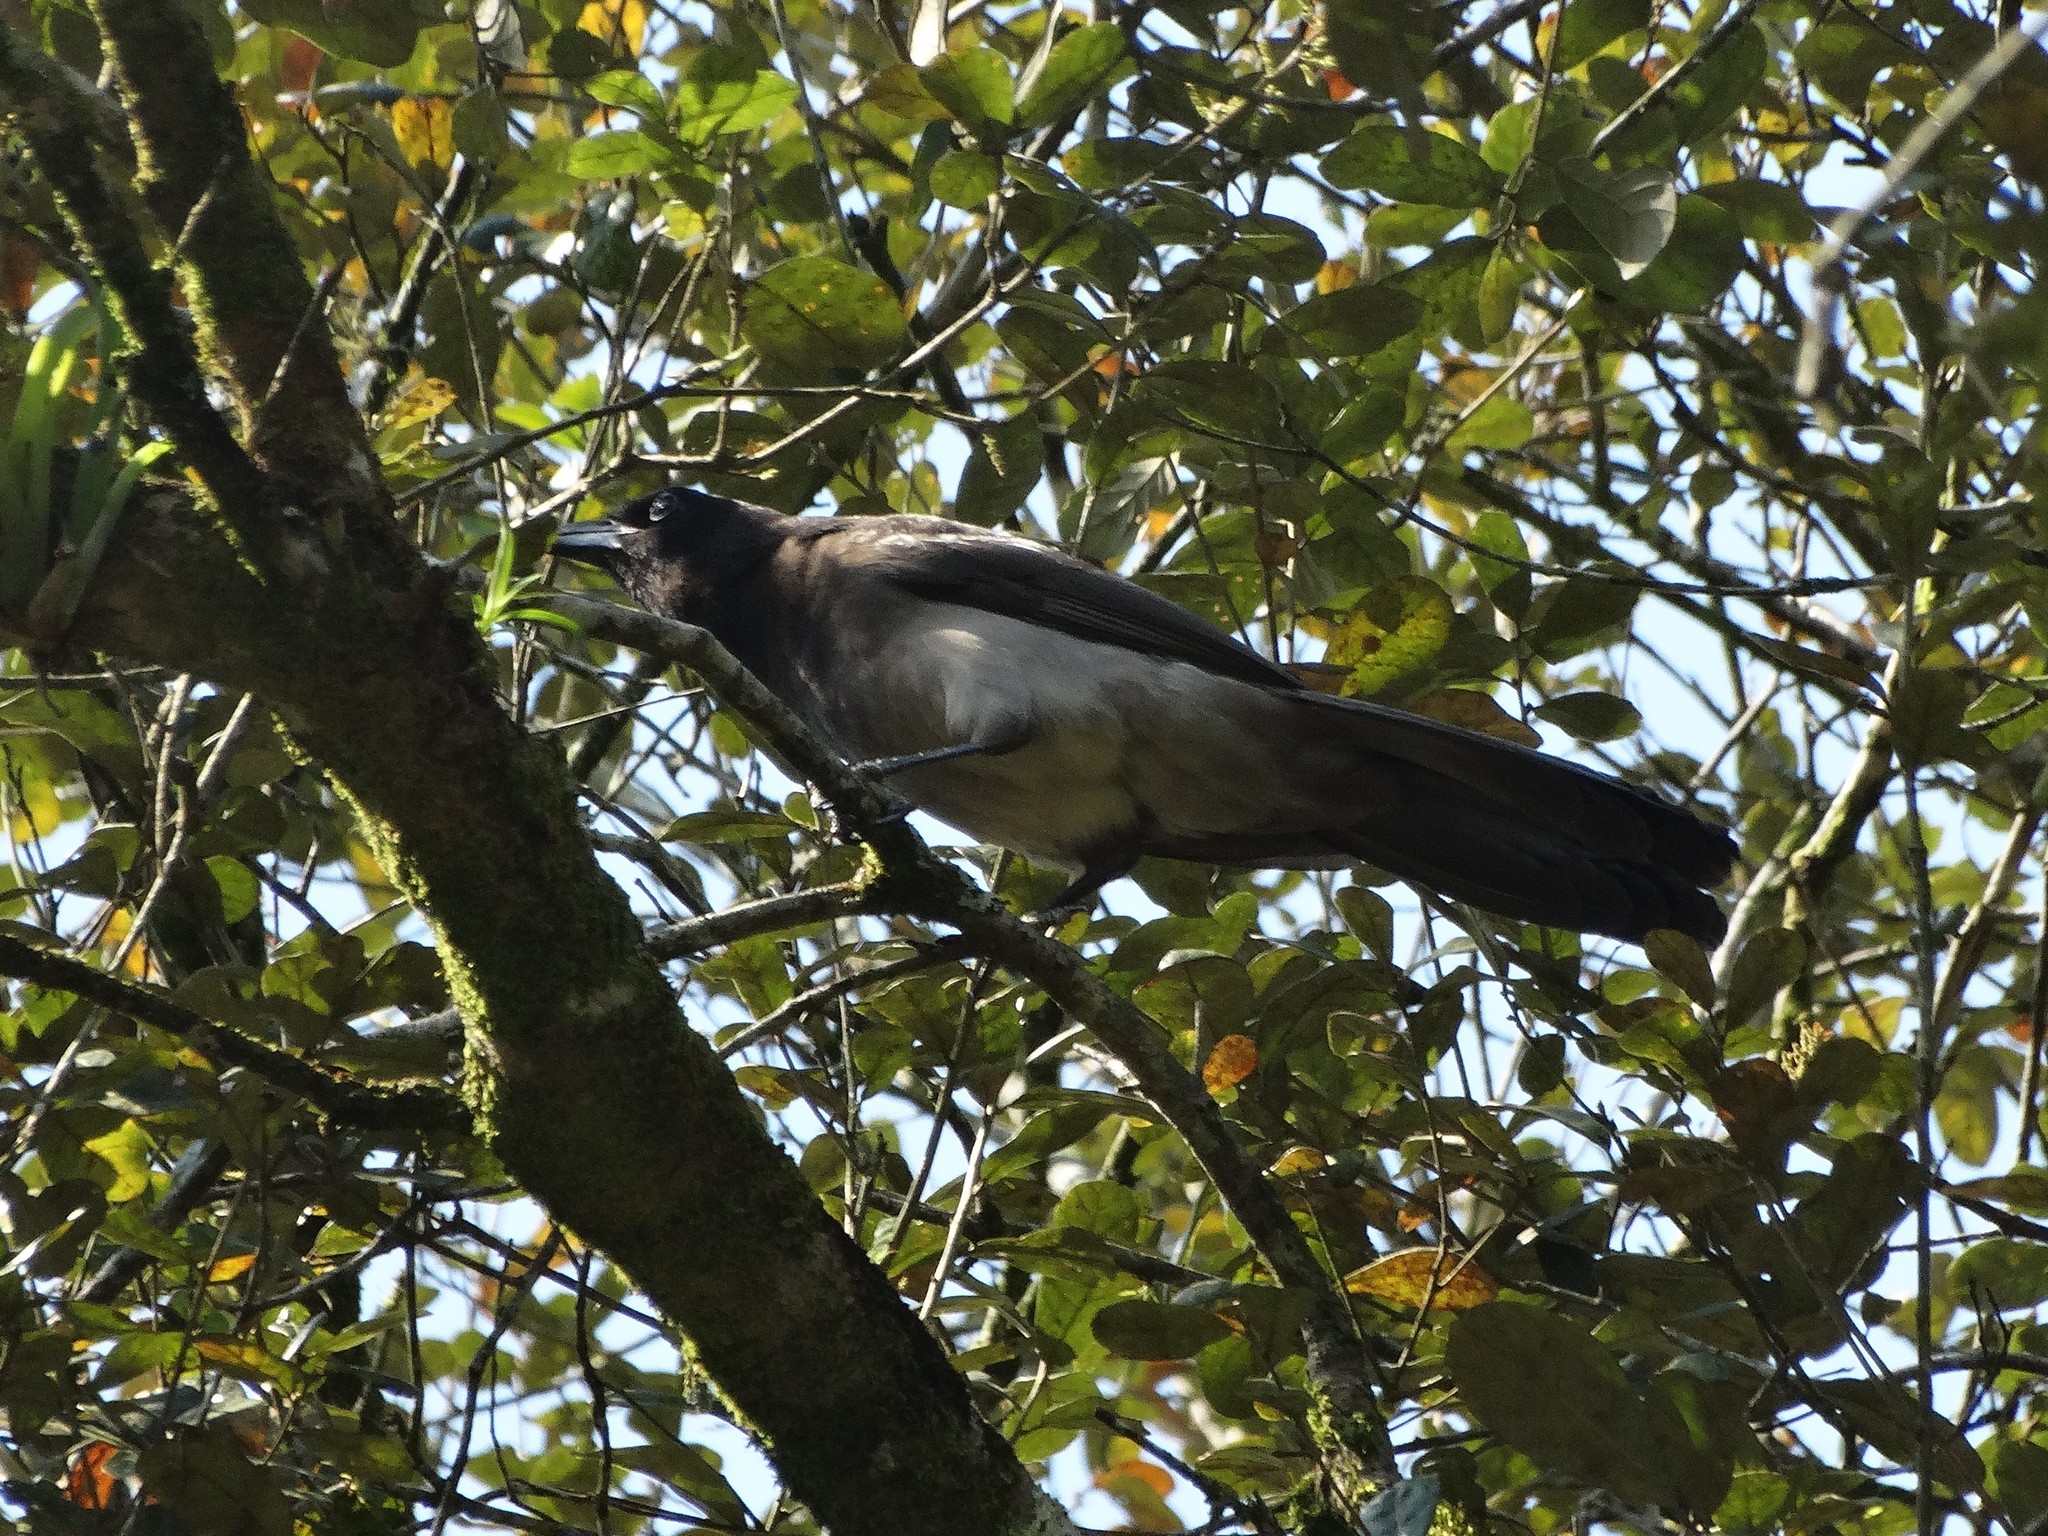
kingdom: Animalia
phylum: Chordata
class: Aves
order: Passeriformes
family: Corvidae
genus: Psilorhinus
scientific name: Psilorhinus morio
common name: Brown jay
